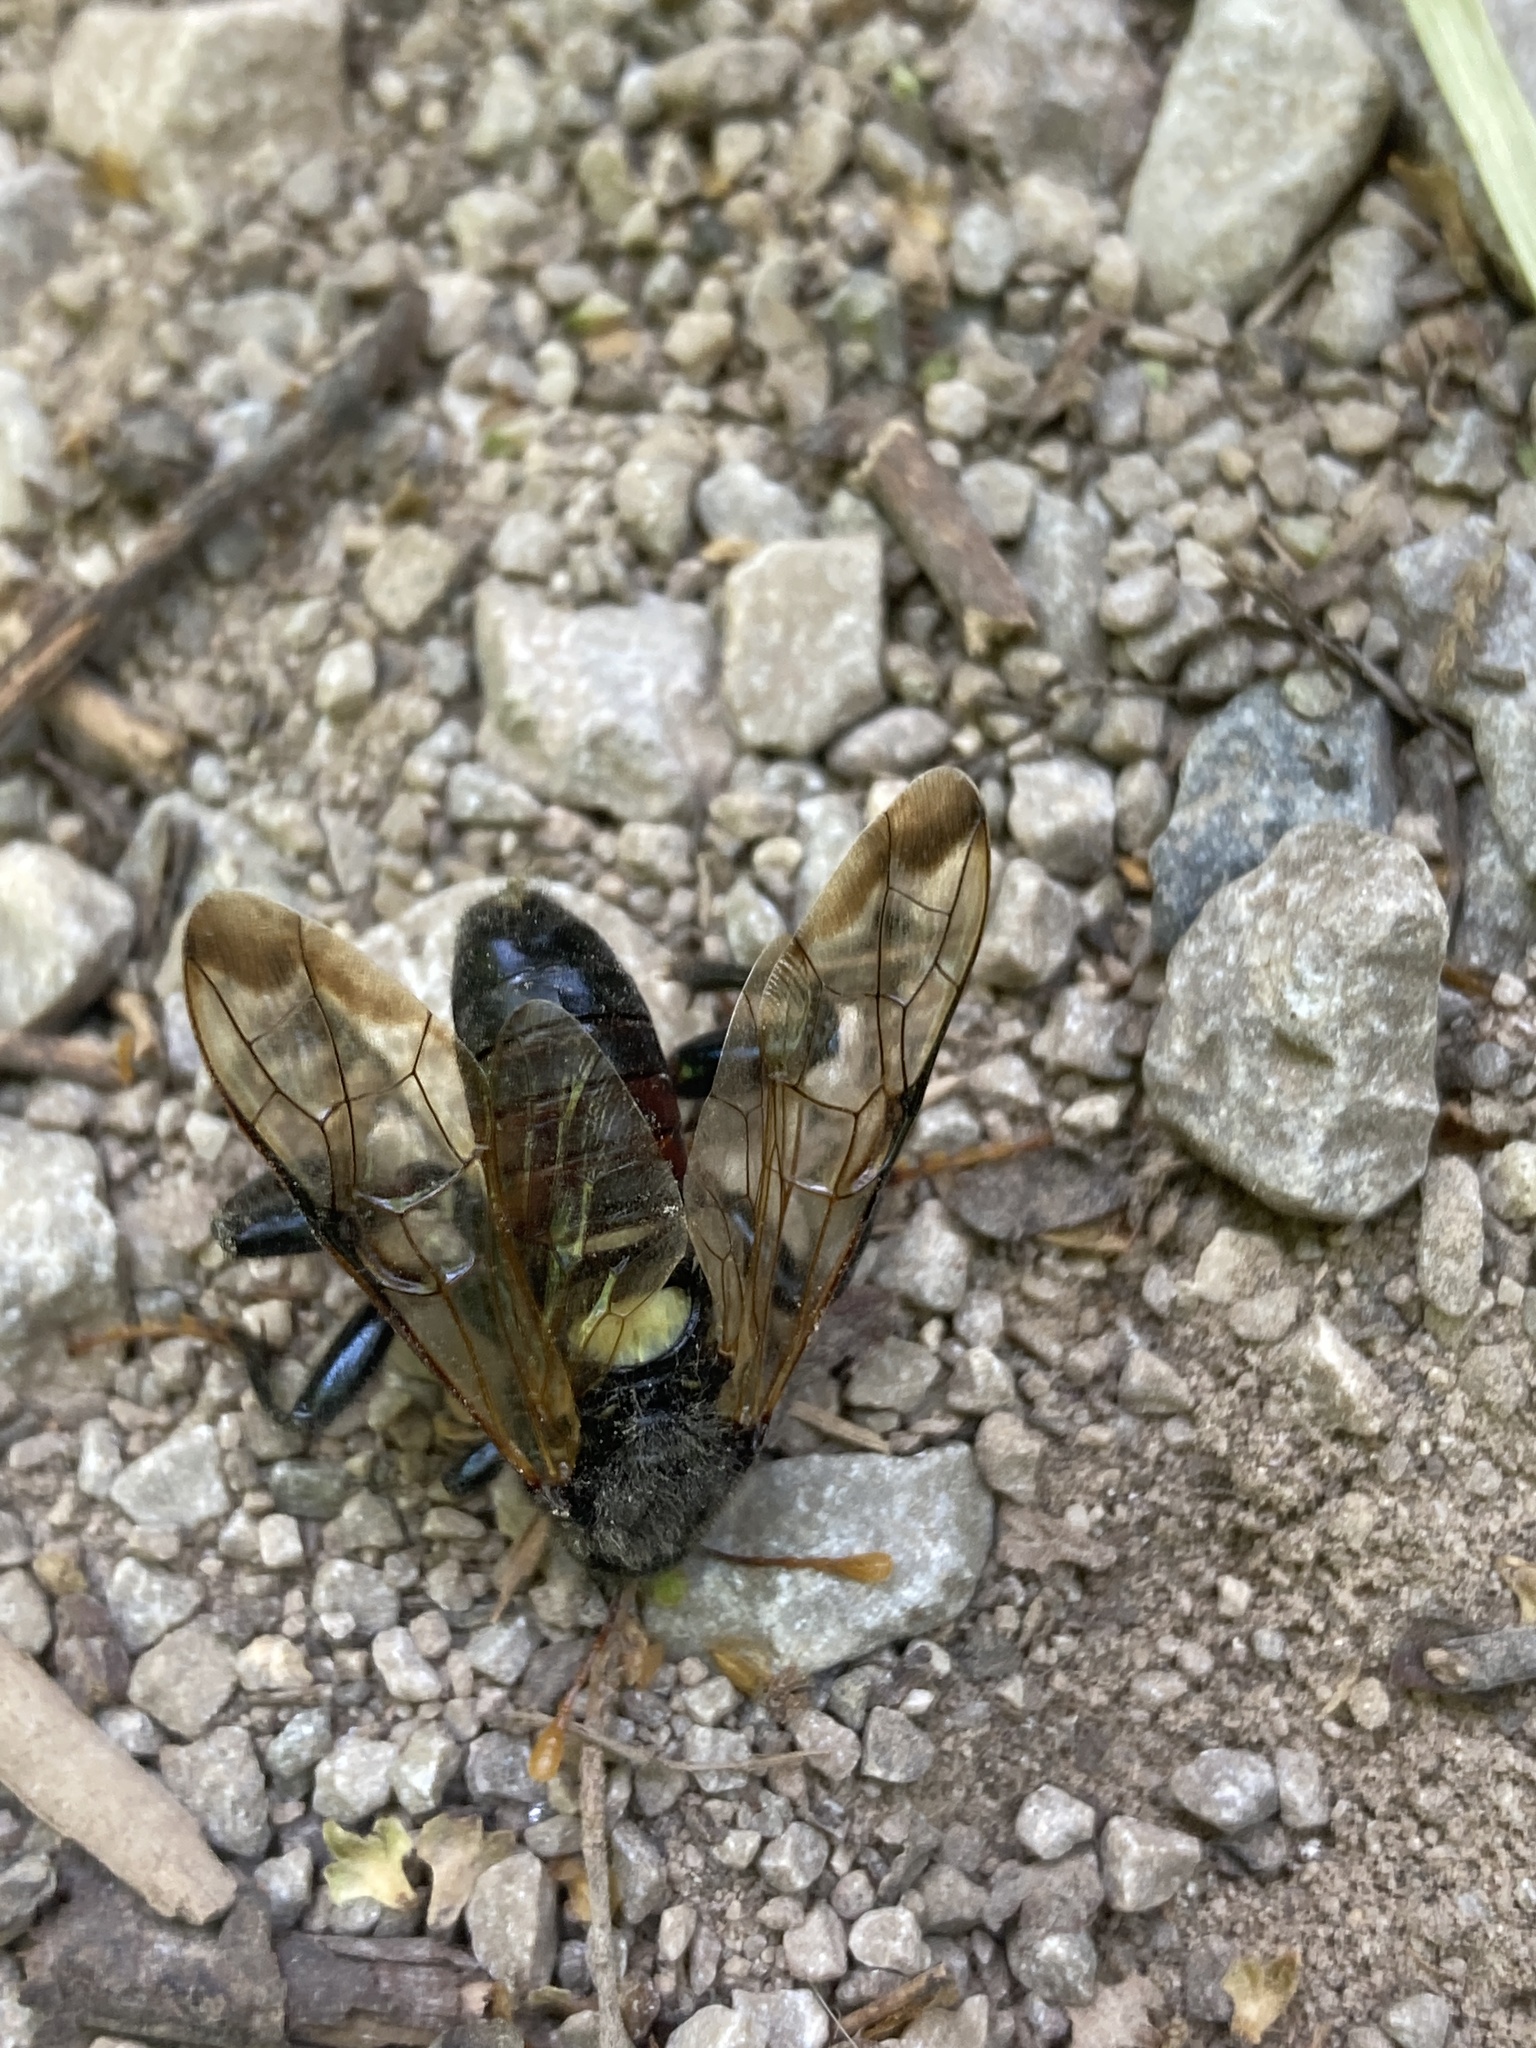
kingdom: Animalia
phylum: Arthropoda
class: Insecta
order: Hymenoptera
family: Cimbicidae
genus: Cimbex
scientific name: Cimbex femoratus
